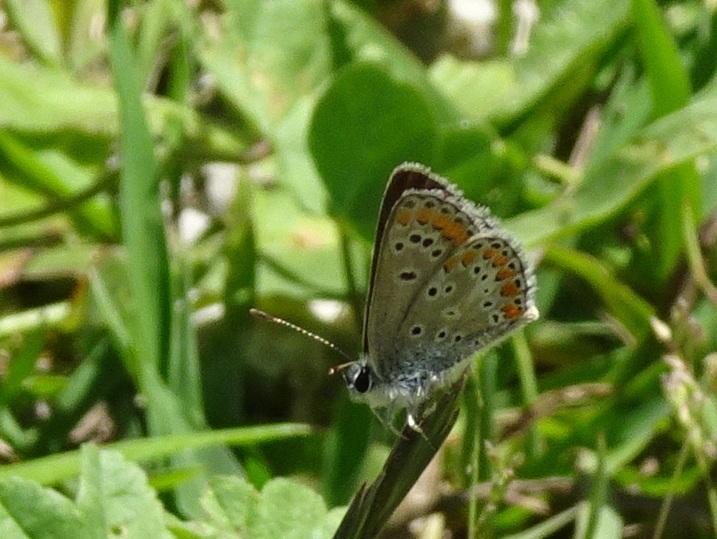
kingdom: Animalia
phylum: Arthropoda
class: Insecta
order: Lepidoptera
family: Lycaenidae
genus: Aricia
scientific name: Aricia agestis
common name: Brown argus
